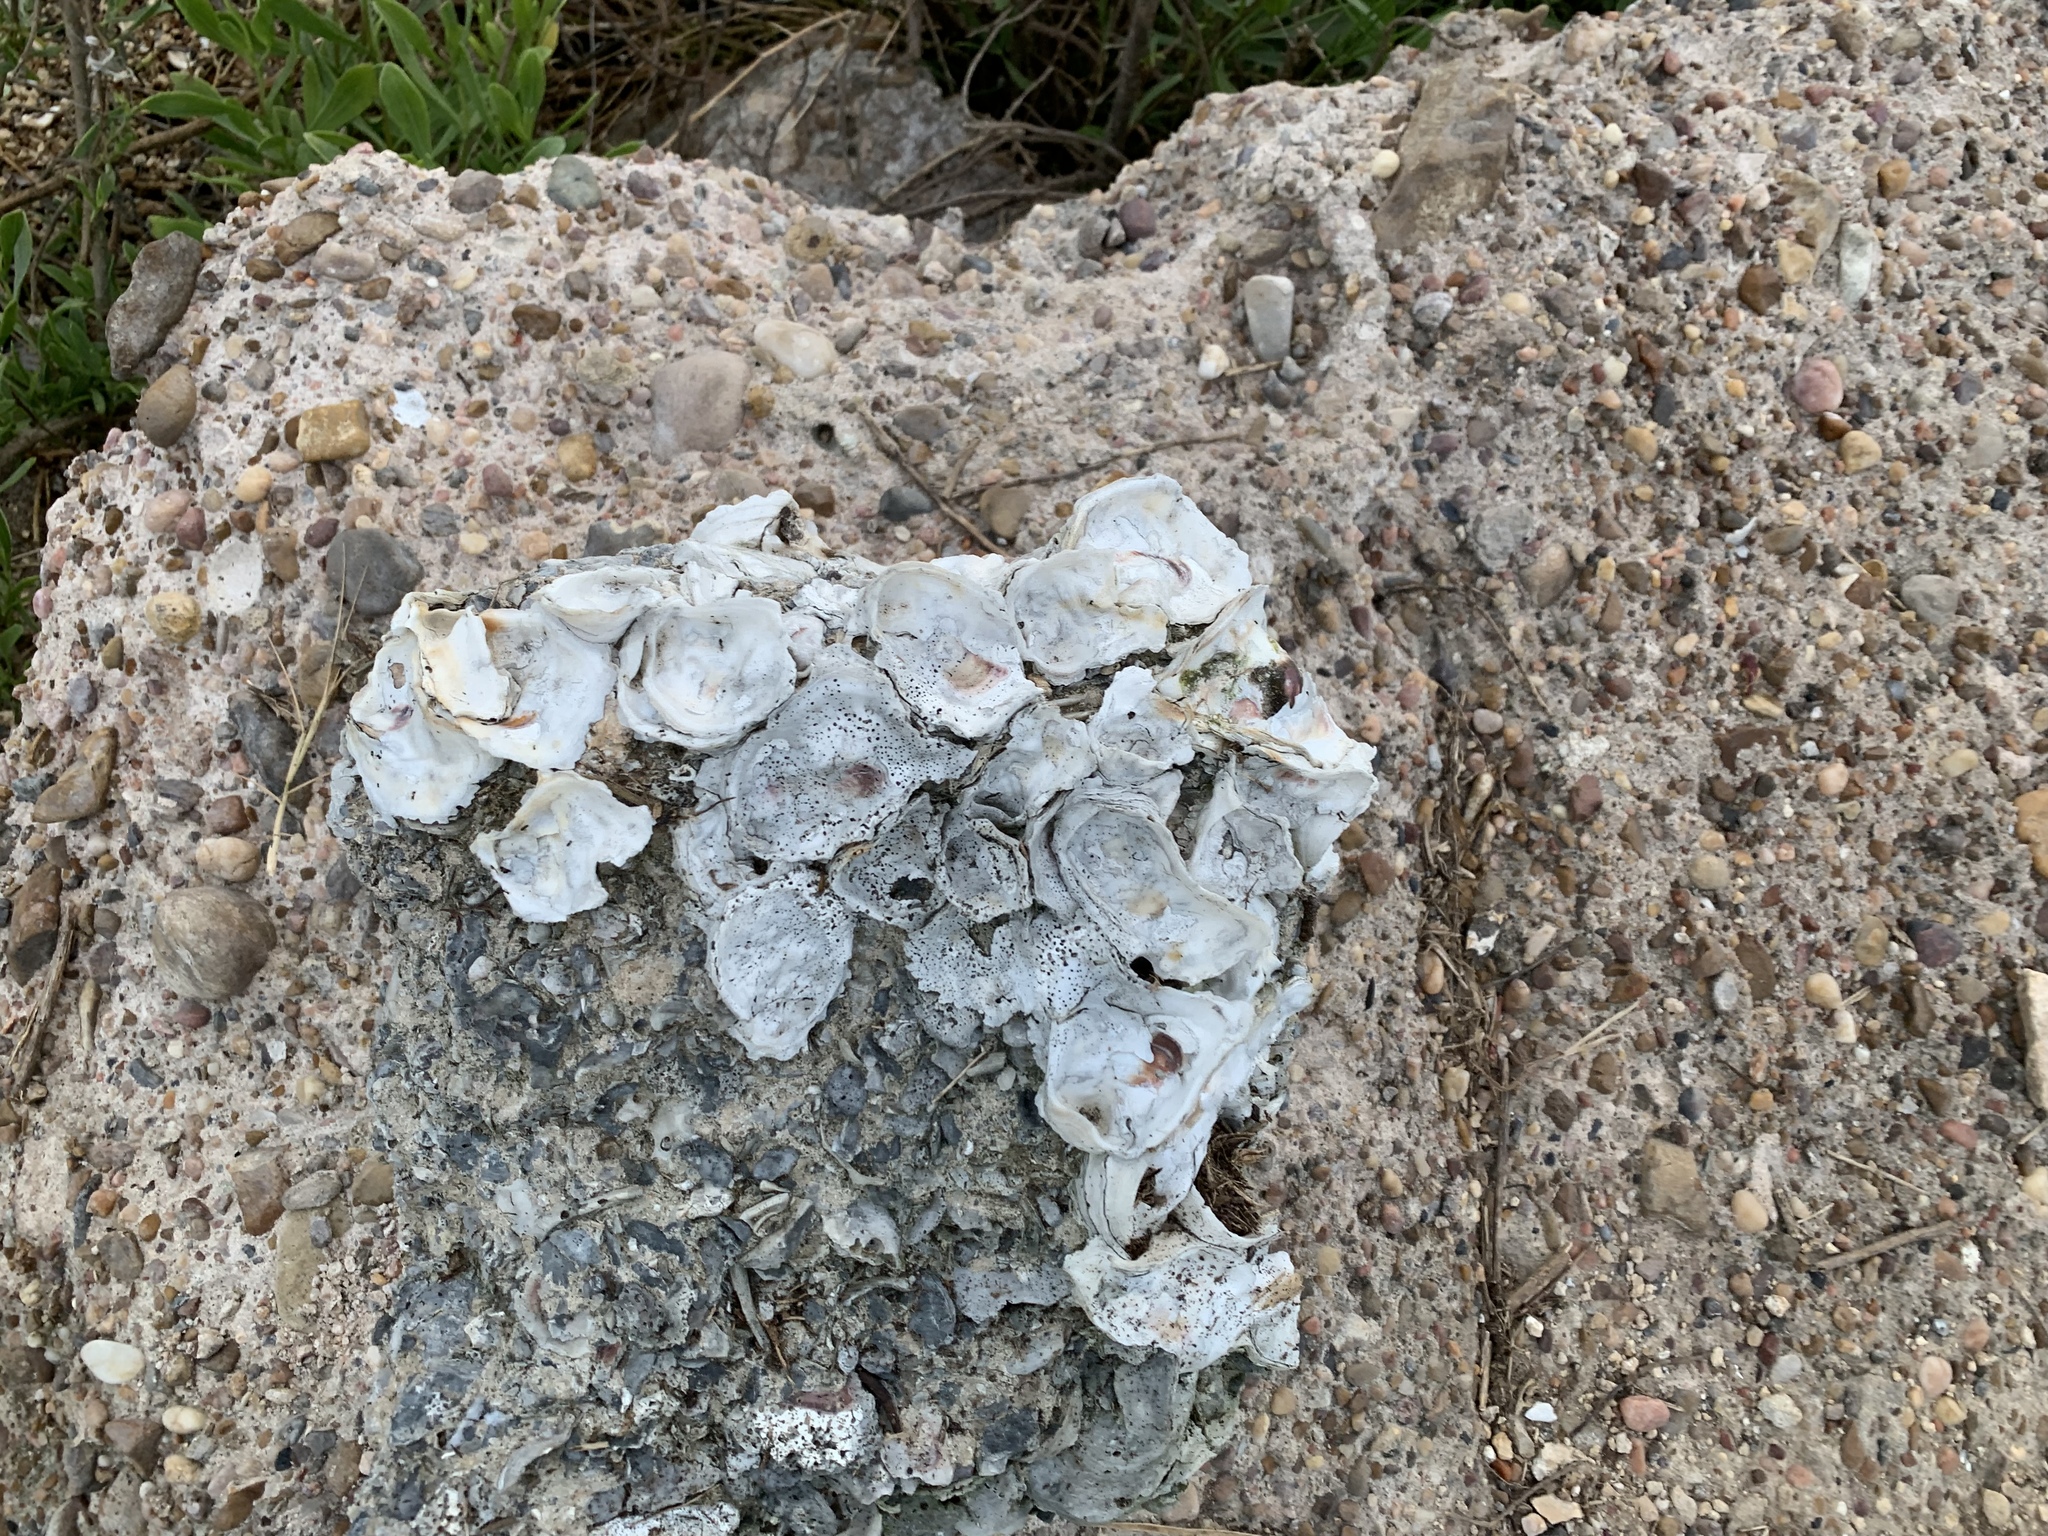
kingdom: Animalia
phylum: Mollusca
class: Bivalvia
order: Ostreida
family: Ostreidae
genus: Crassostrea
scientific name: Crassostrea virginica
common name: American oyster
